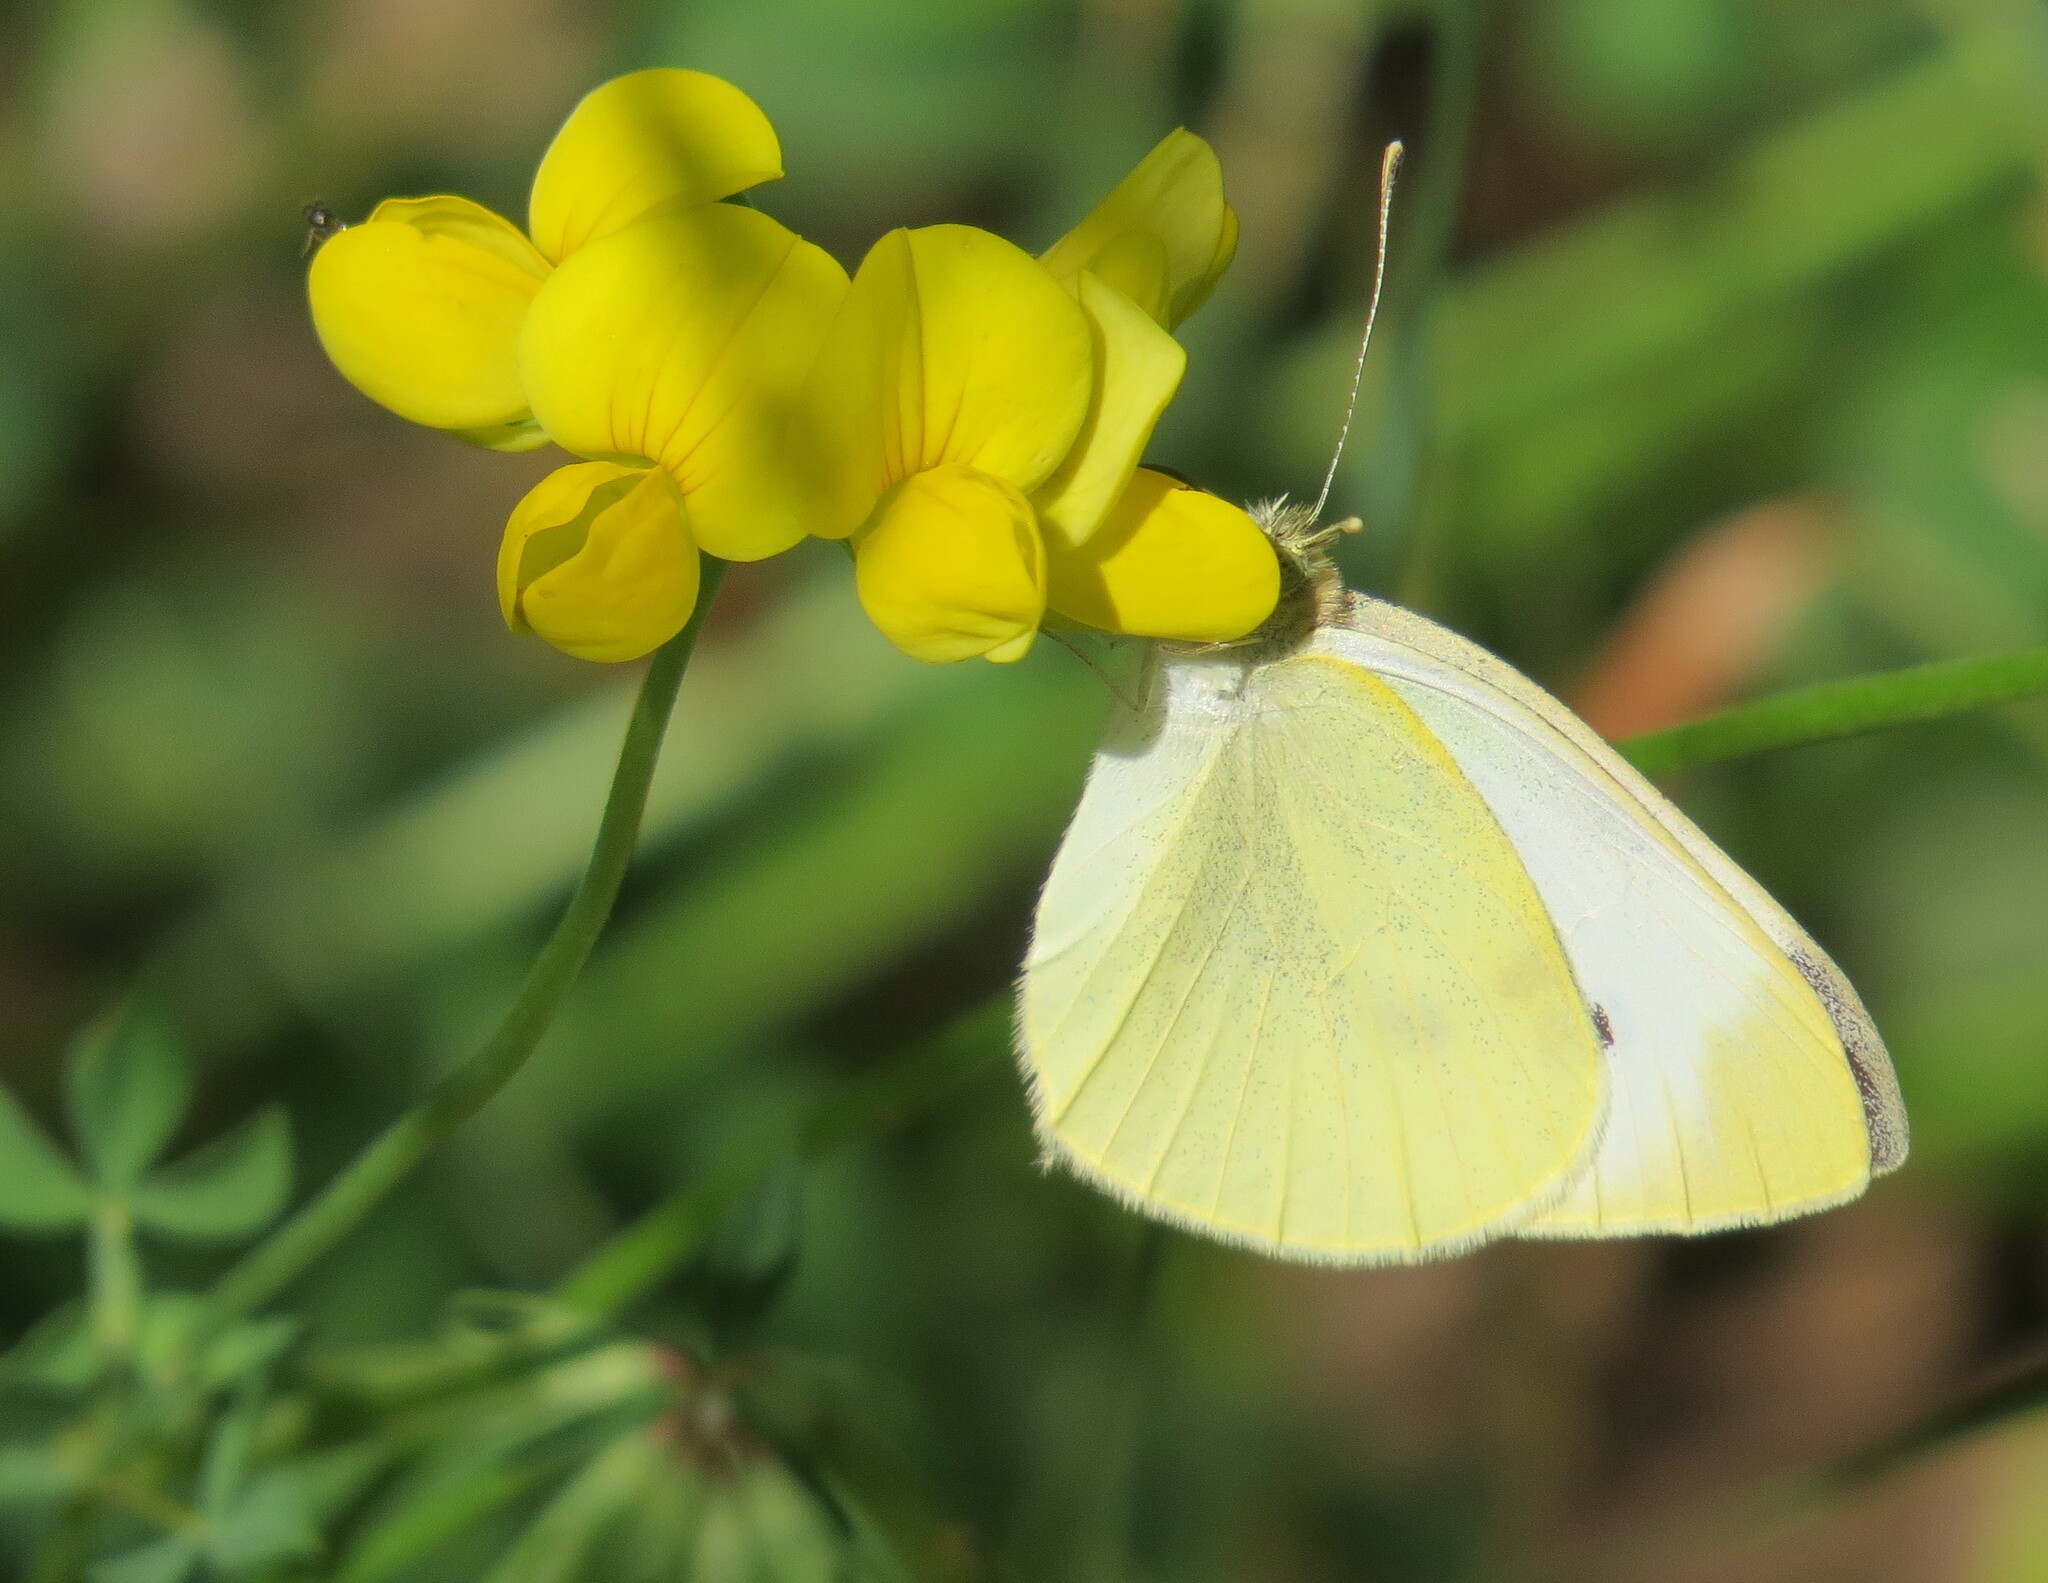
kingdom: Animalia
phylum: Arthropoda
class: Insecta
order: Lepidoptera
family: Pieridae
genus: Pieris
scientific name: Pieris rapae
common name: Small white
